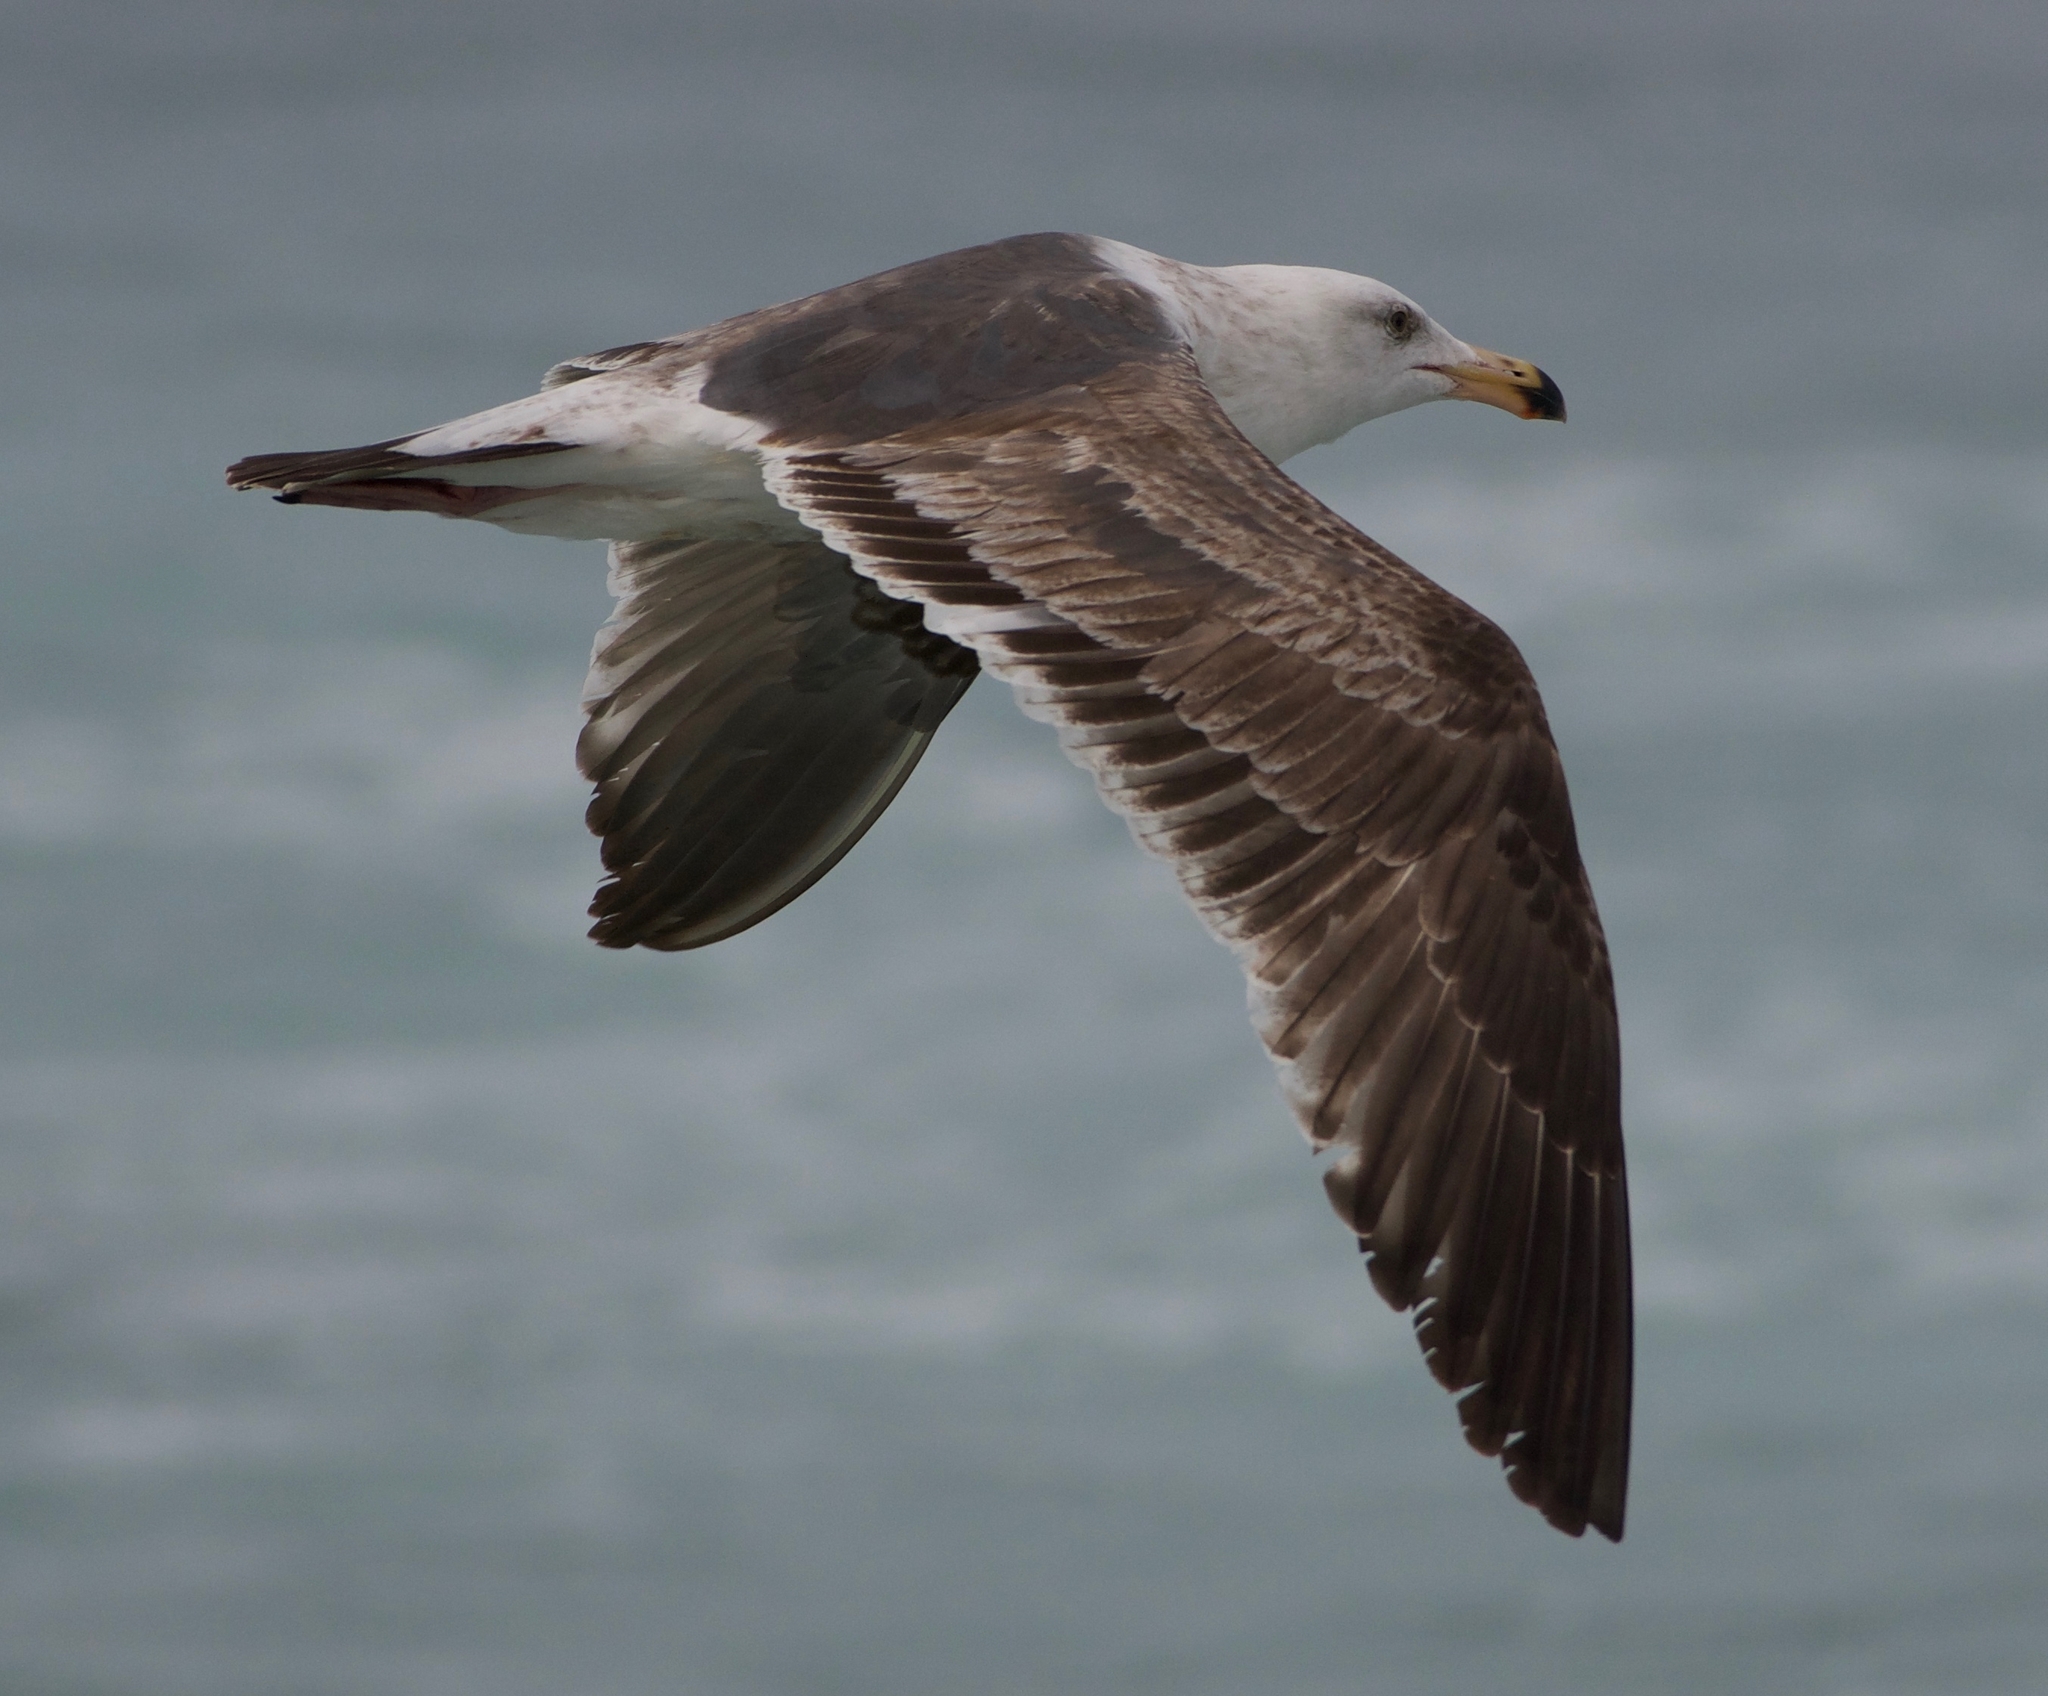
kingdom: Animalia
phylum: Chordata
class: Aves
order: Charadriiformes
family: Laridae
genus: Larus
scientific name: Larus occidentalis
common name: Western gull
